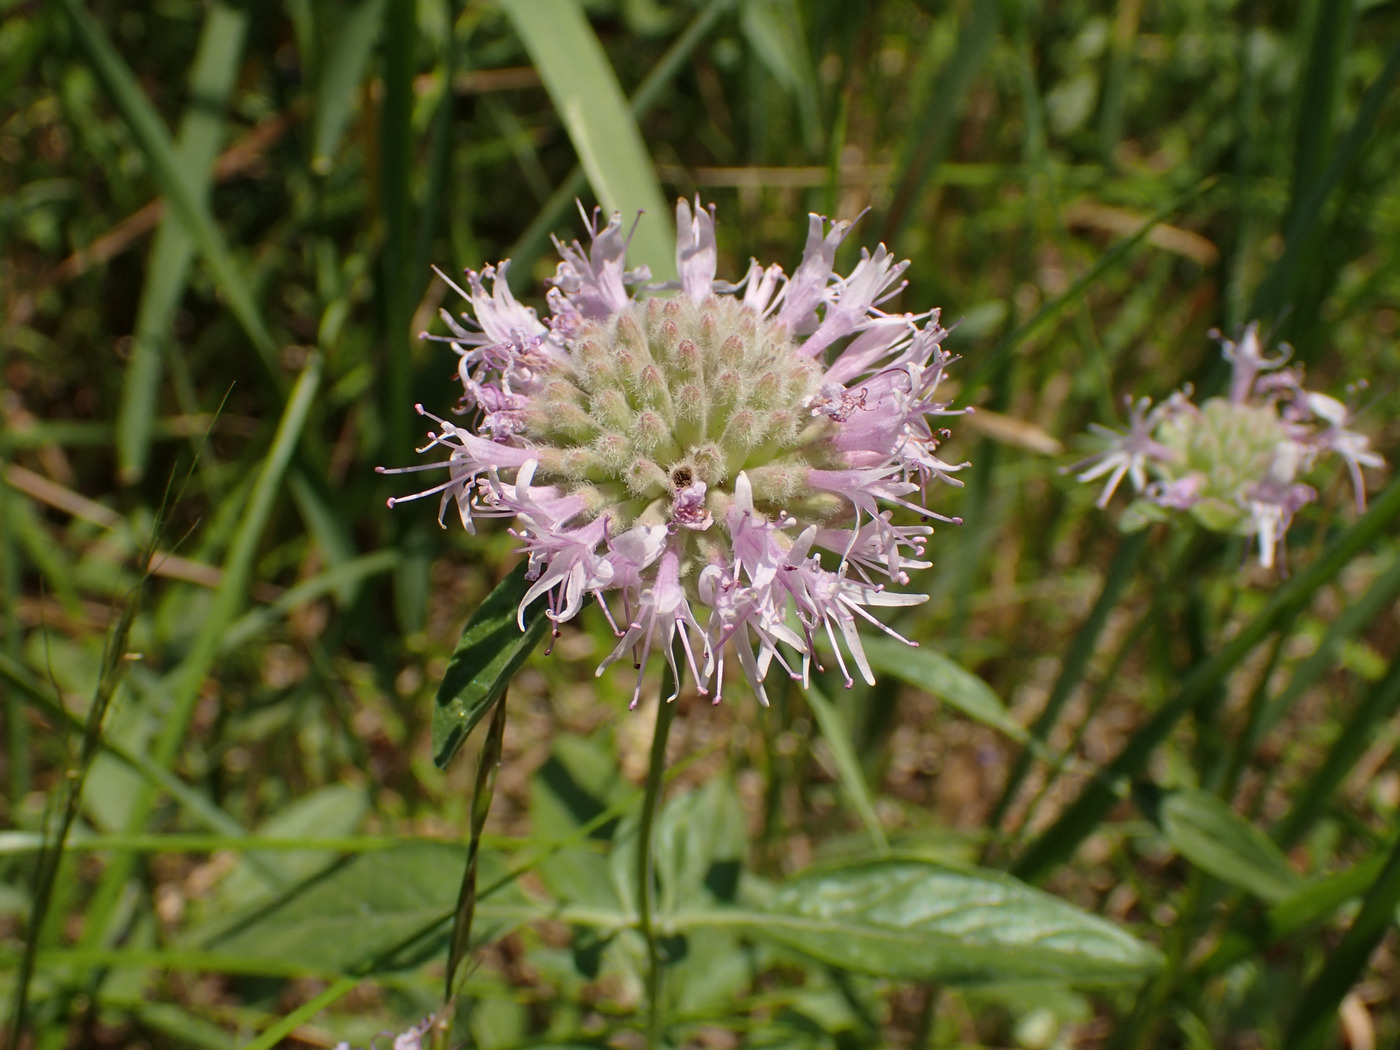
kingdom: Plantae
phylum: Tracheophyta
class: Magnoliopsida
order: Lamiales
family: Lamiaceae
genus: Monardella
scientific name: Monardella odoratissima
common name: Pacific monardella
